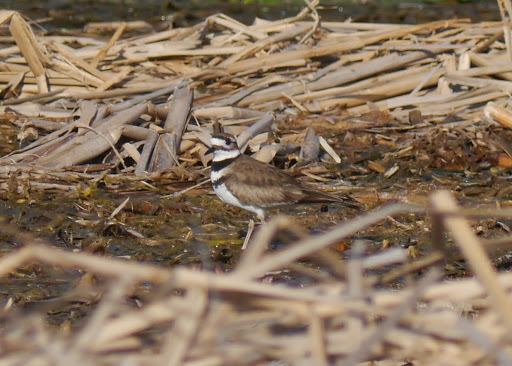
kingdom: Animalia
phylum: Chordata
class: Aves
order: Charadriiformes
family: Charadriidae
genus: Charadrius
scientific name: Charadrius vociferus
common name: Killdeer
